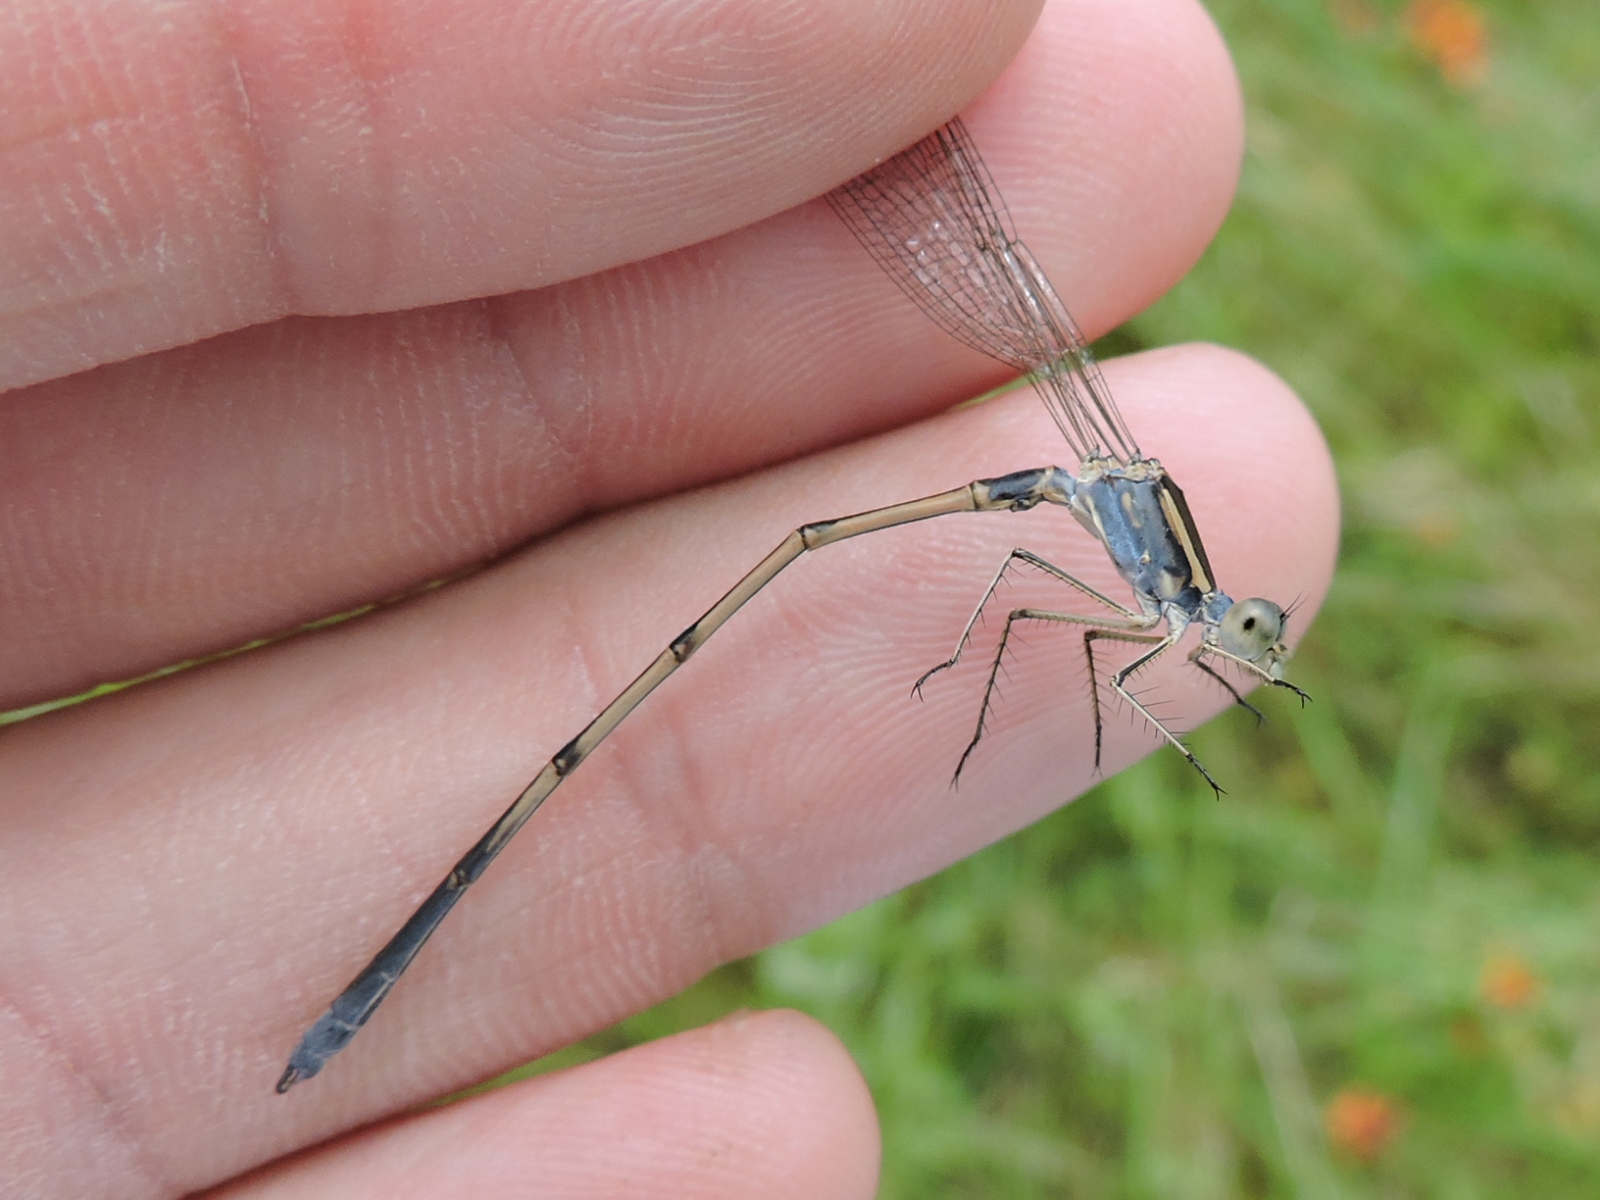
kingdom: Animalia
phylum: Arthropoda
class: Insecta
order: Odonata
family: Lestidae
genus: Lestes
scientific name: Lestes australis
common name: Southern spreadwing
